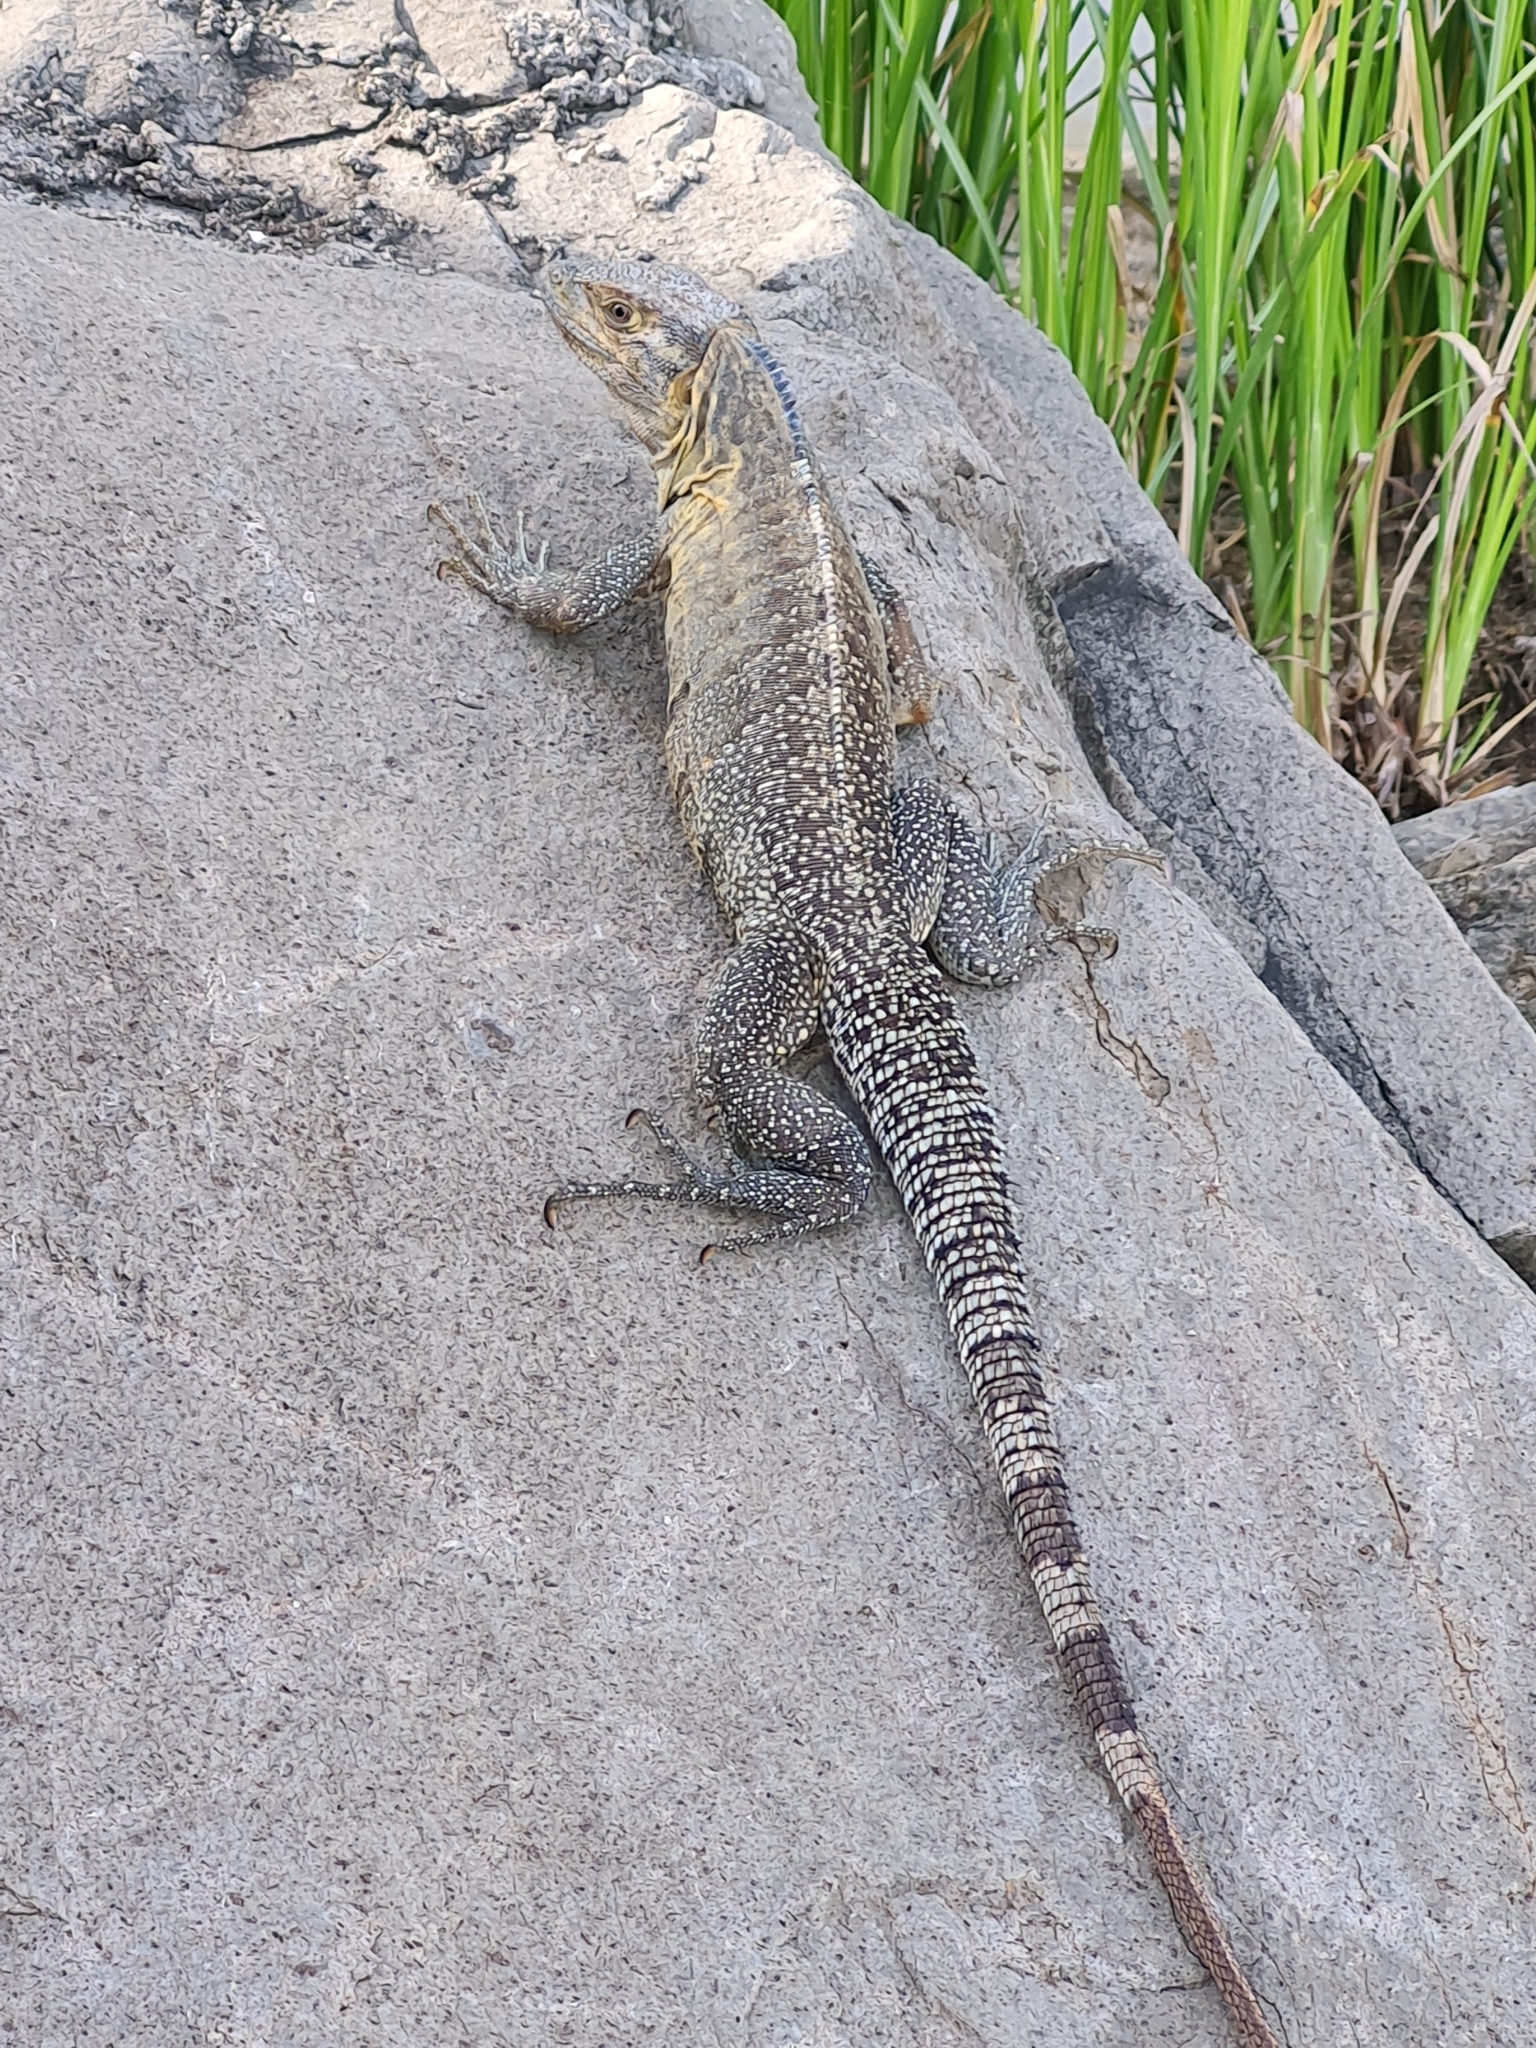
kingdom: Animalia
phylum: Chordata
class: Squamata
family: Iguanidae
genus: Ctenosaura
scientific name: Ctenosaura similis
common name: Black spiny-tailed iguana
